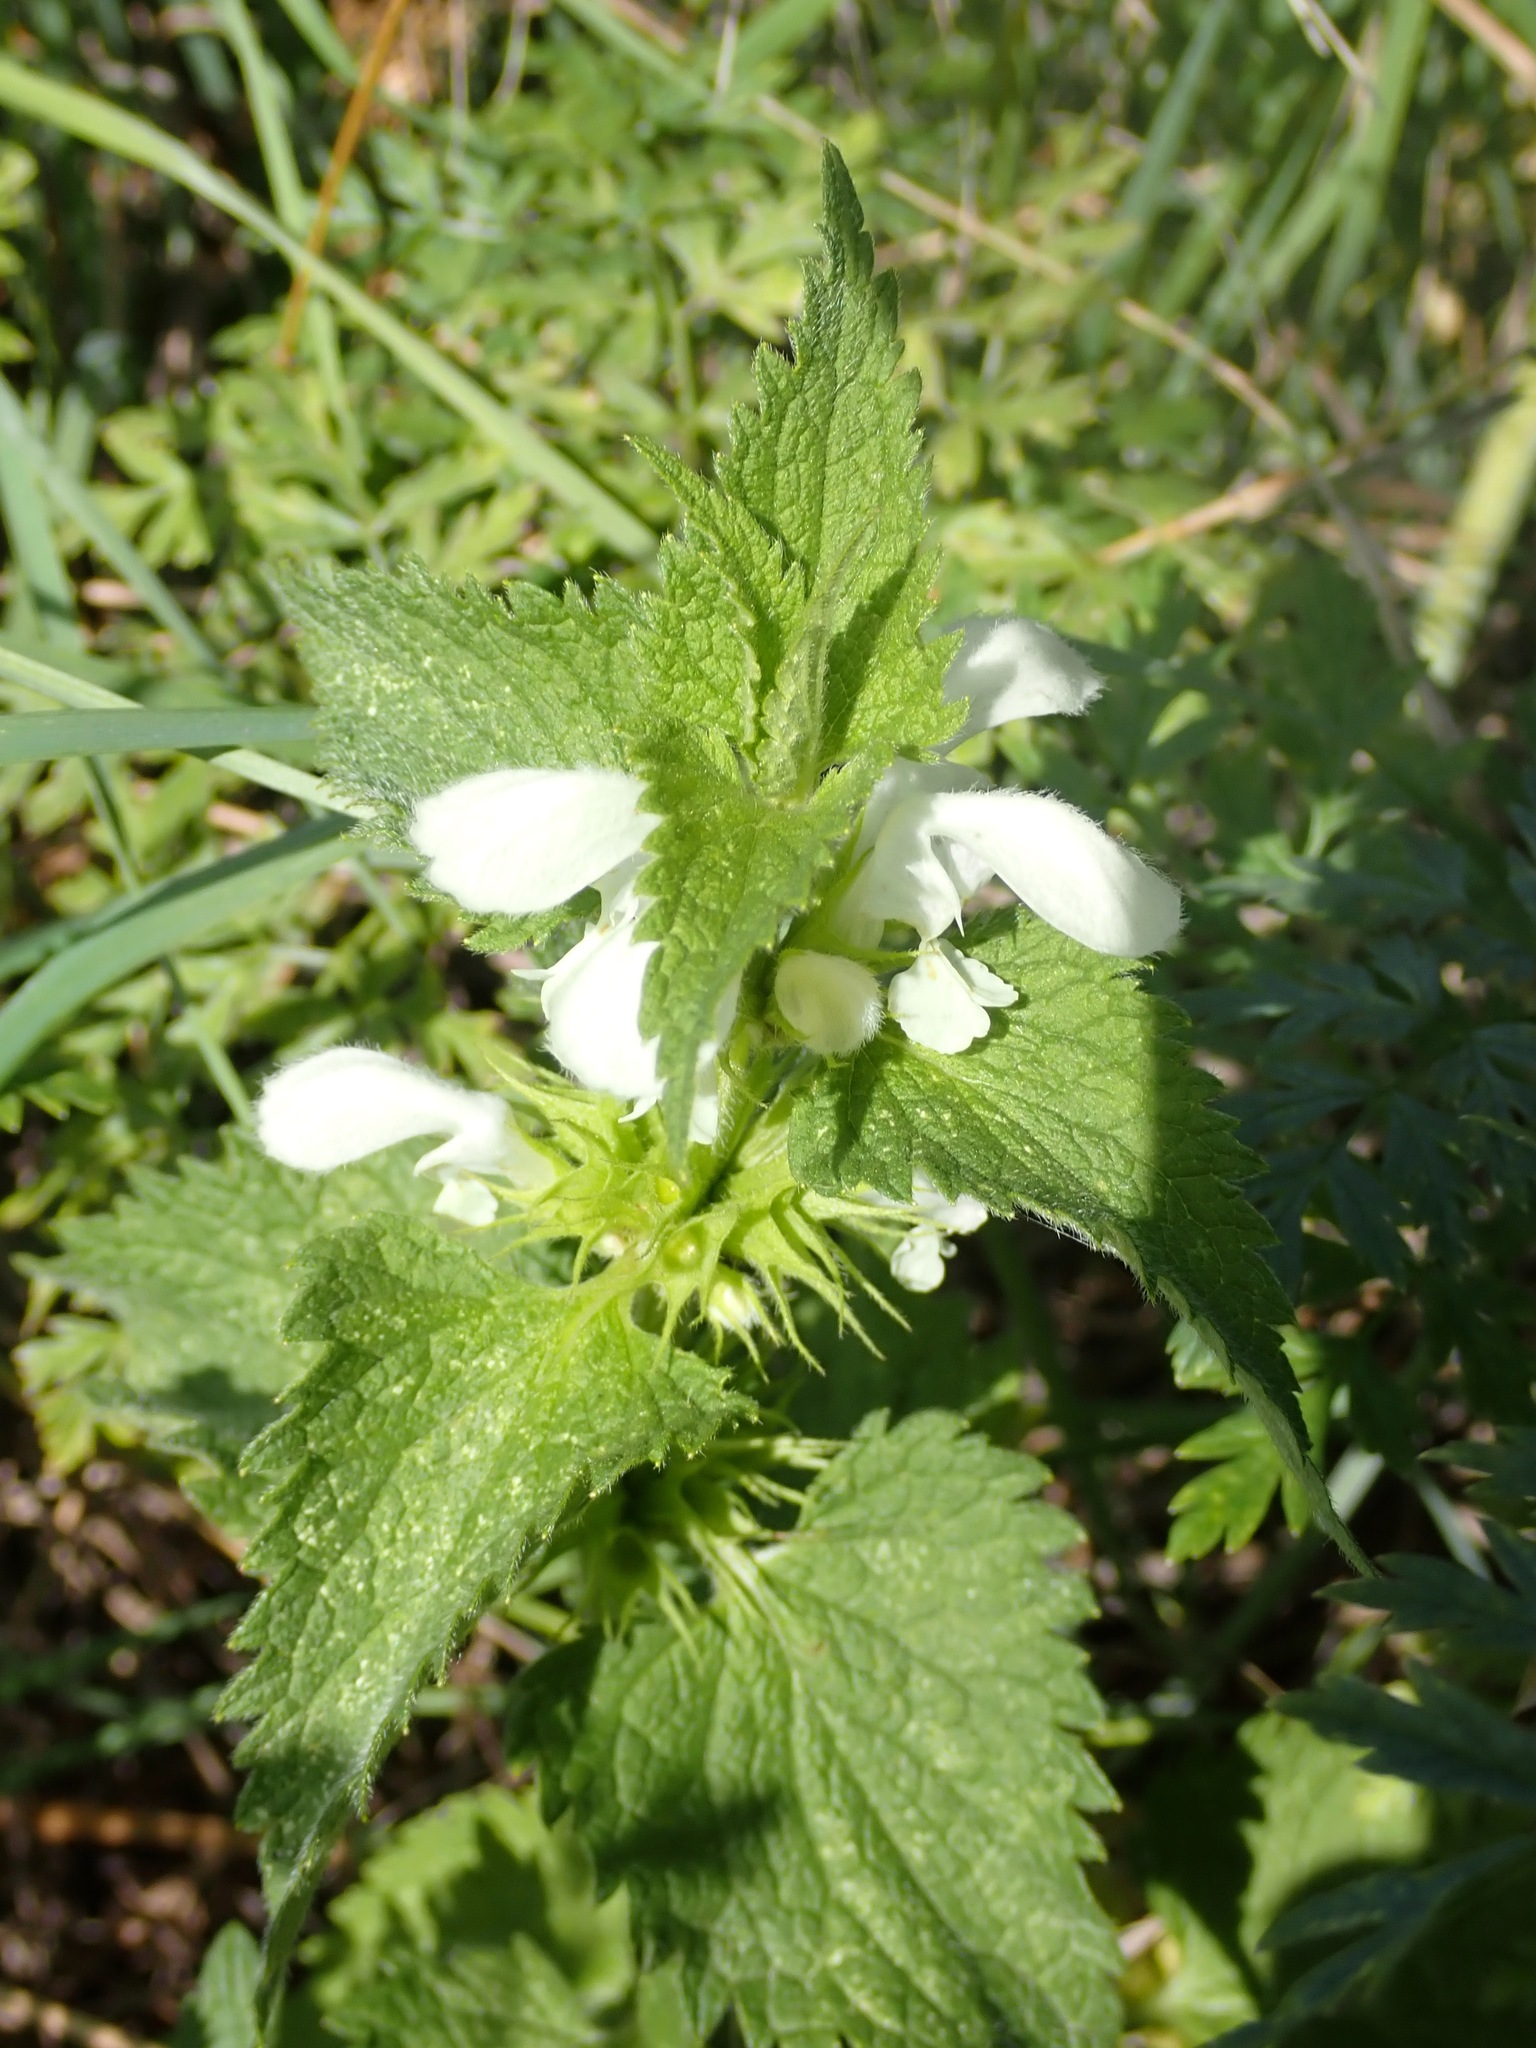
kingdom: Plantae
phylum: Tracheophyta
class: Magnoliopsida
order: Lamiales
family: Lamiaceae
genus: Lamium
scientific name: Lamium album
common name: White dead-nettle
